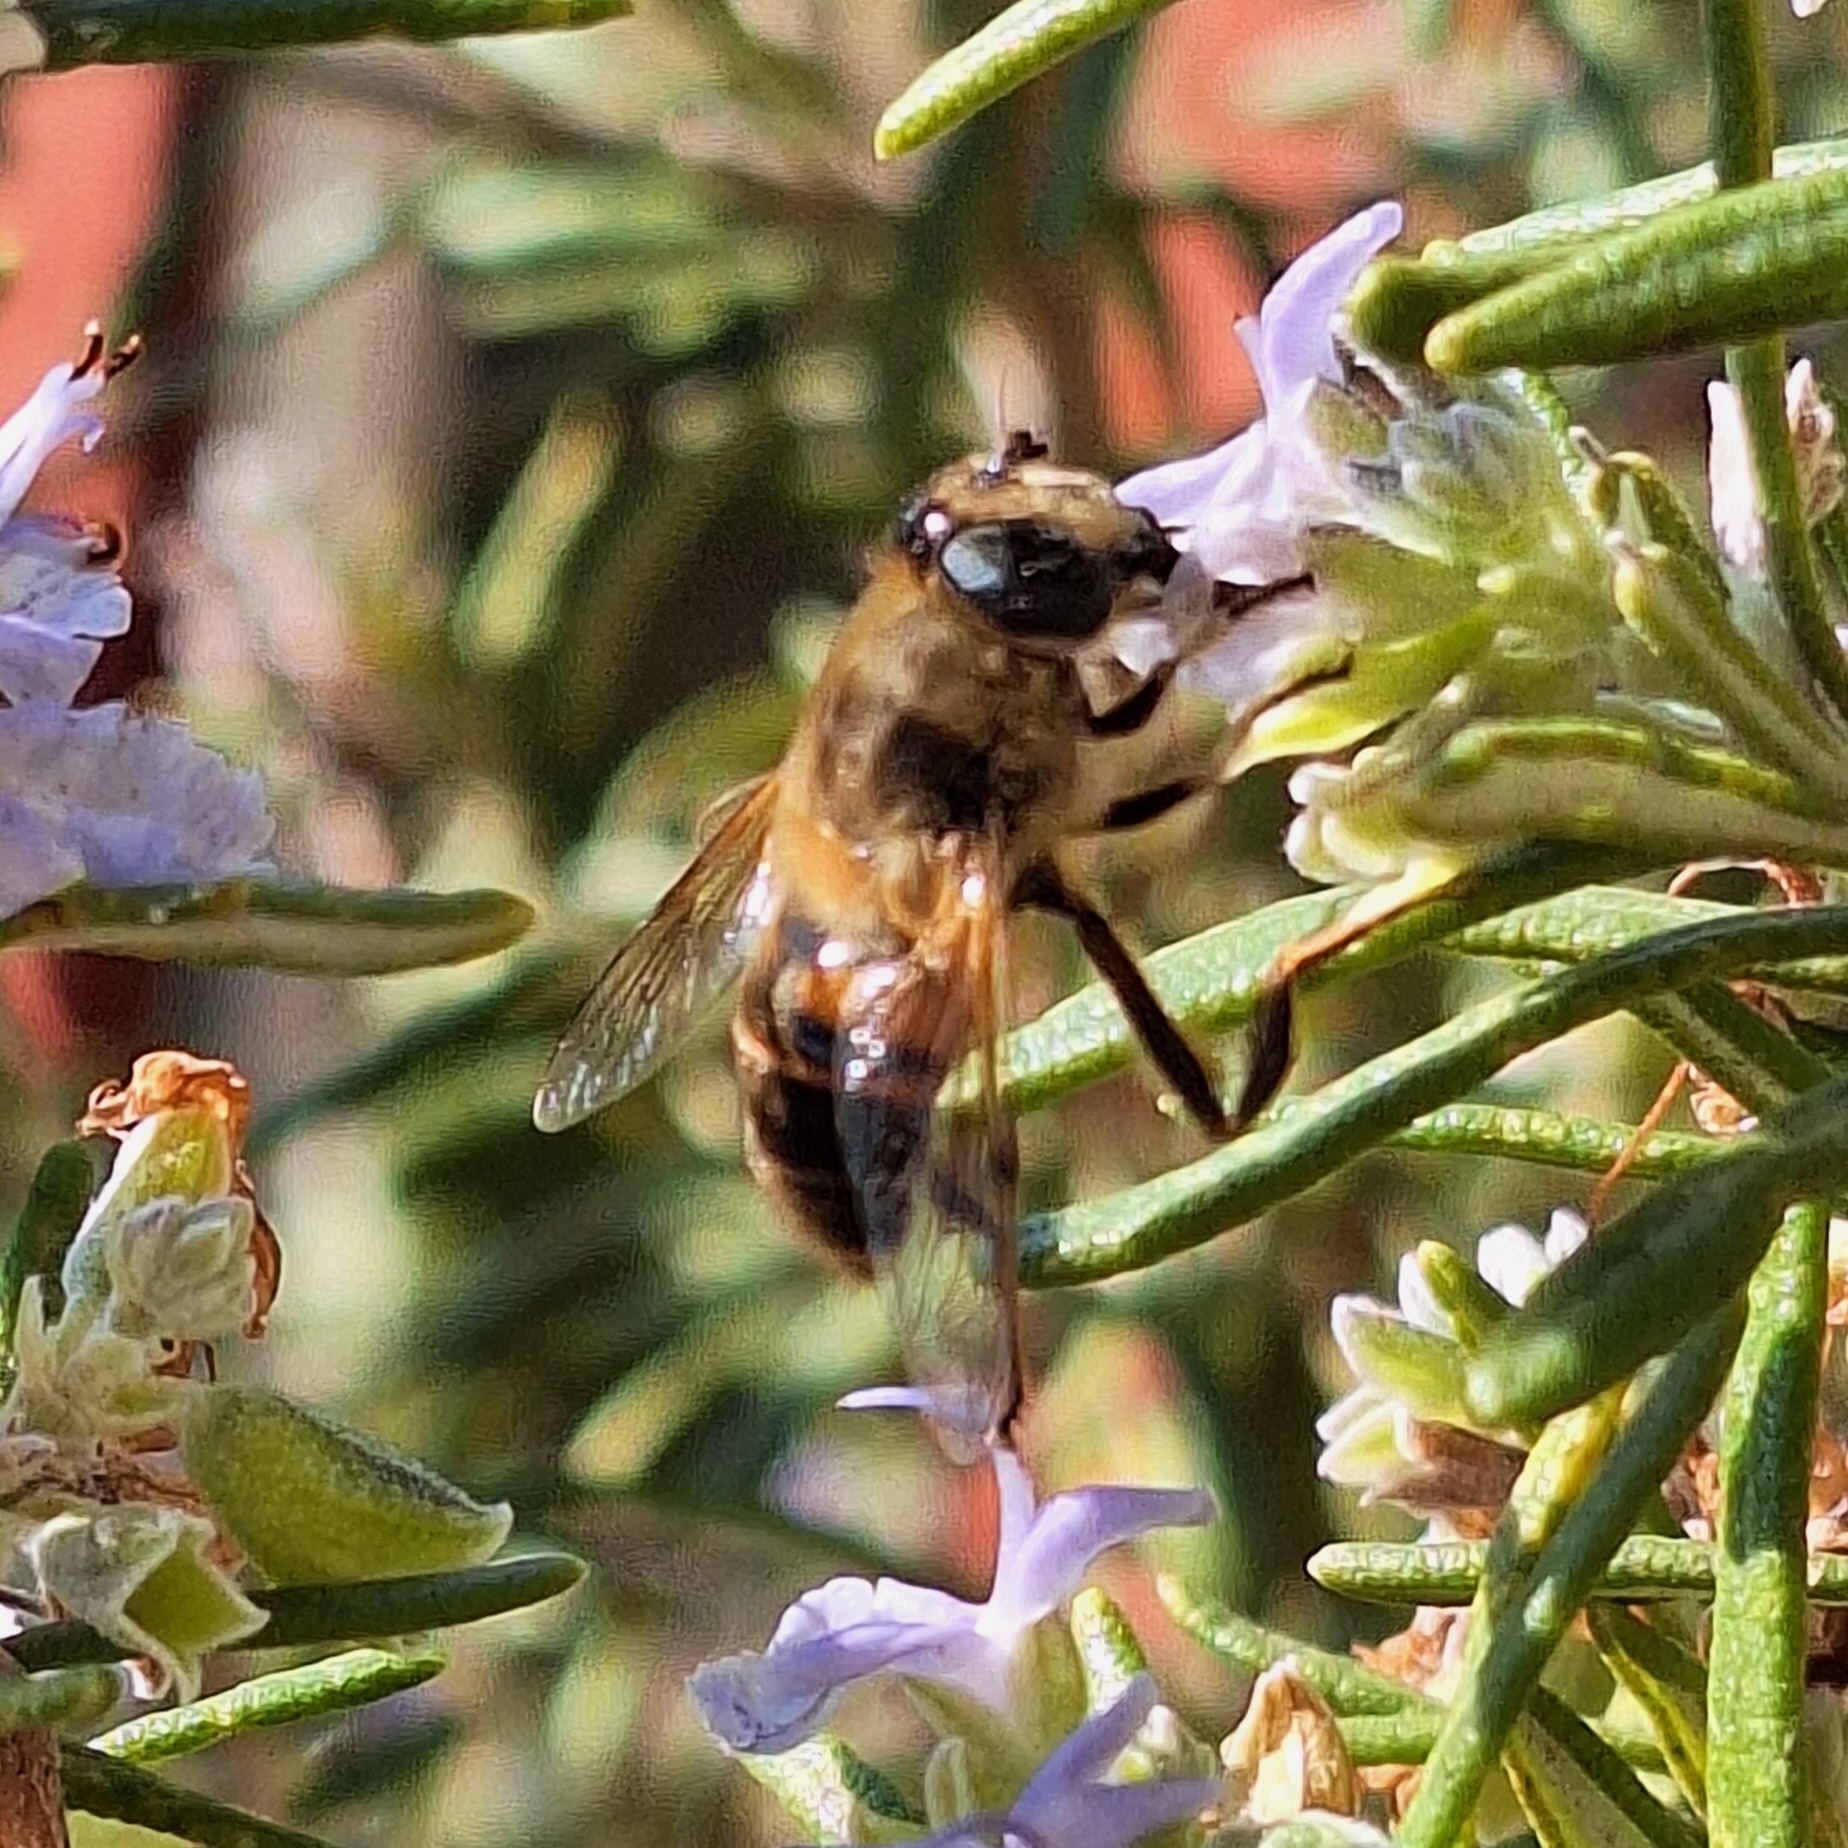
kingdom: Animalia
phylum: Arthropoda
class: Insecta
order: Diptera
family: Syrphidae
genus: Eristalis
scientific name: Eristalis tenax
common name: Drone fly
